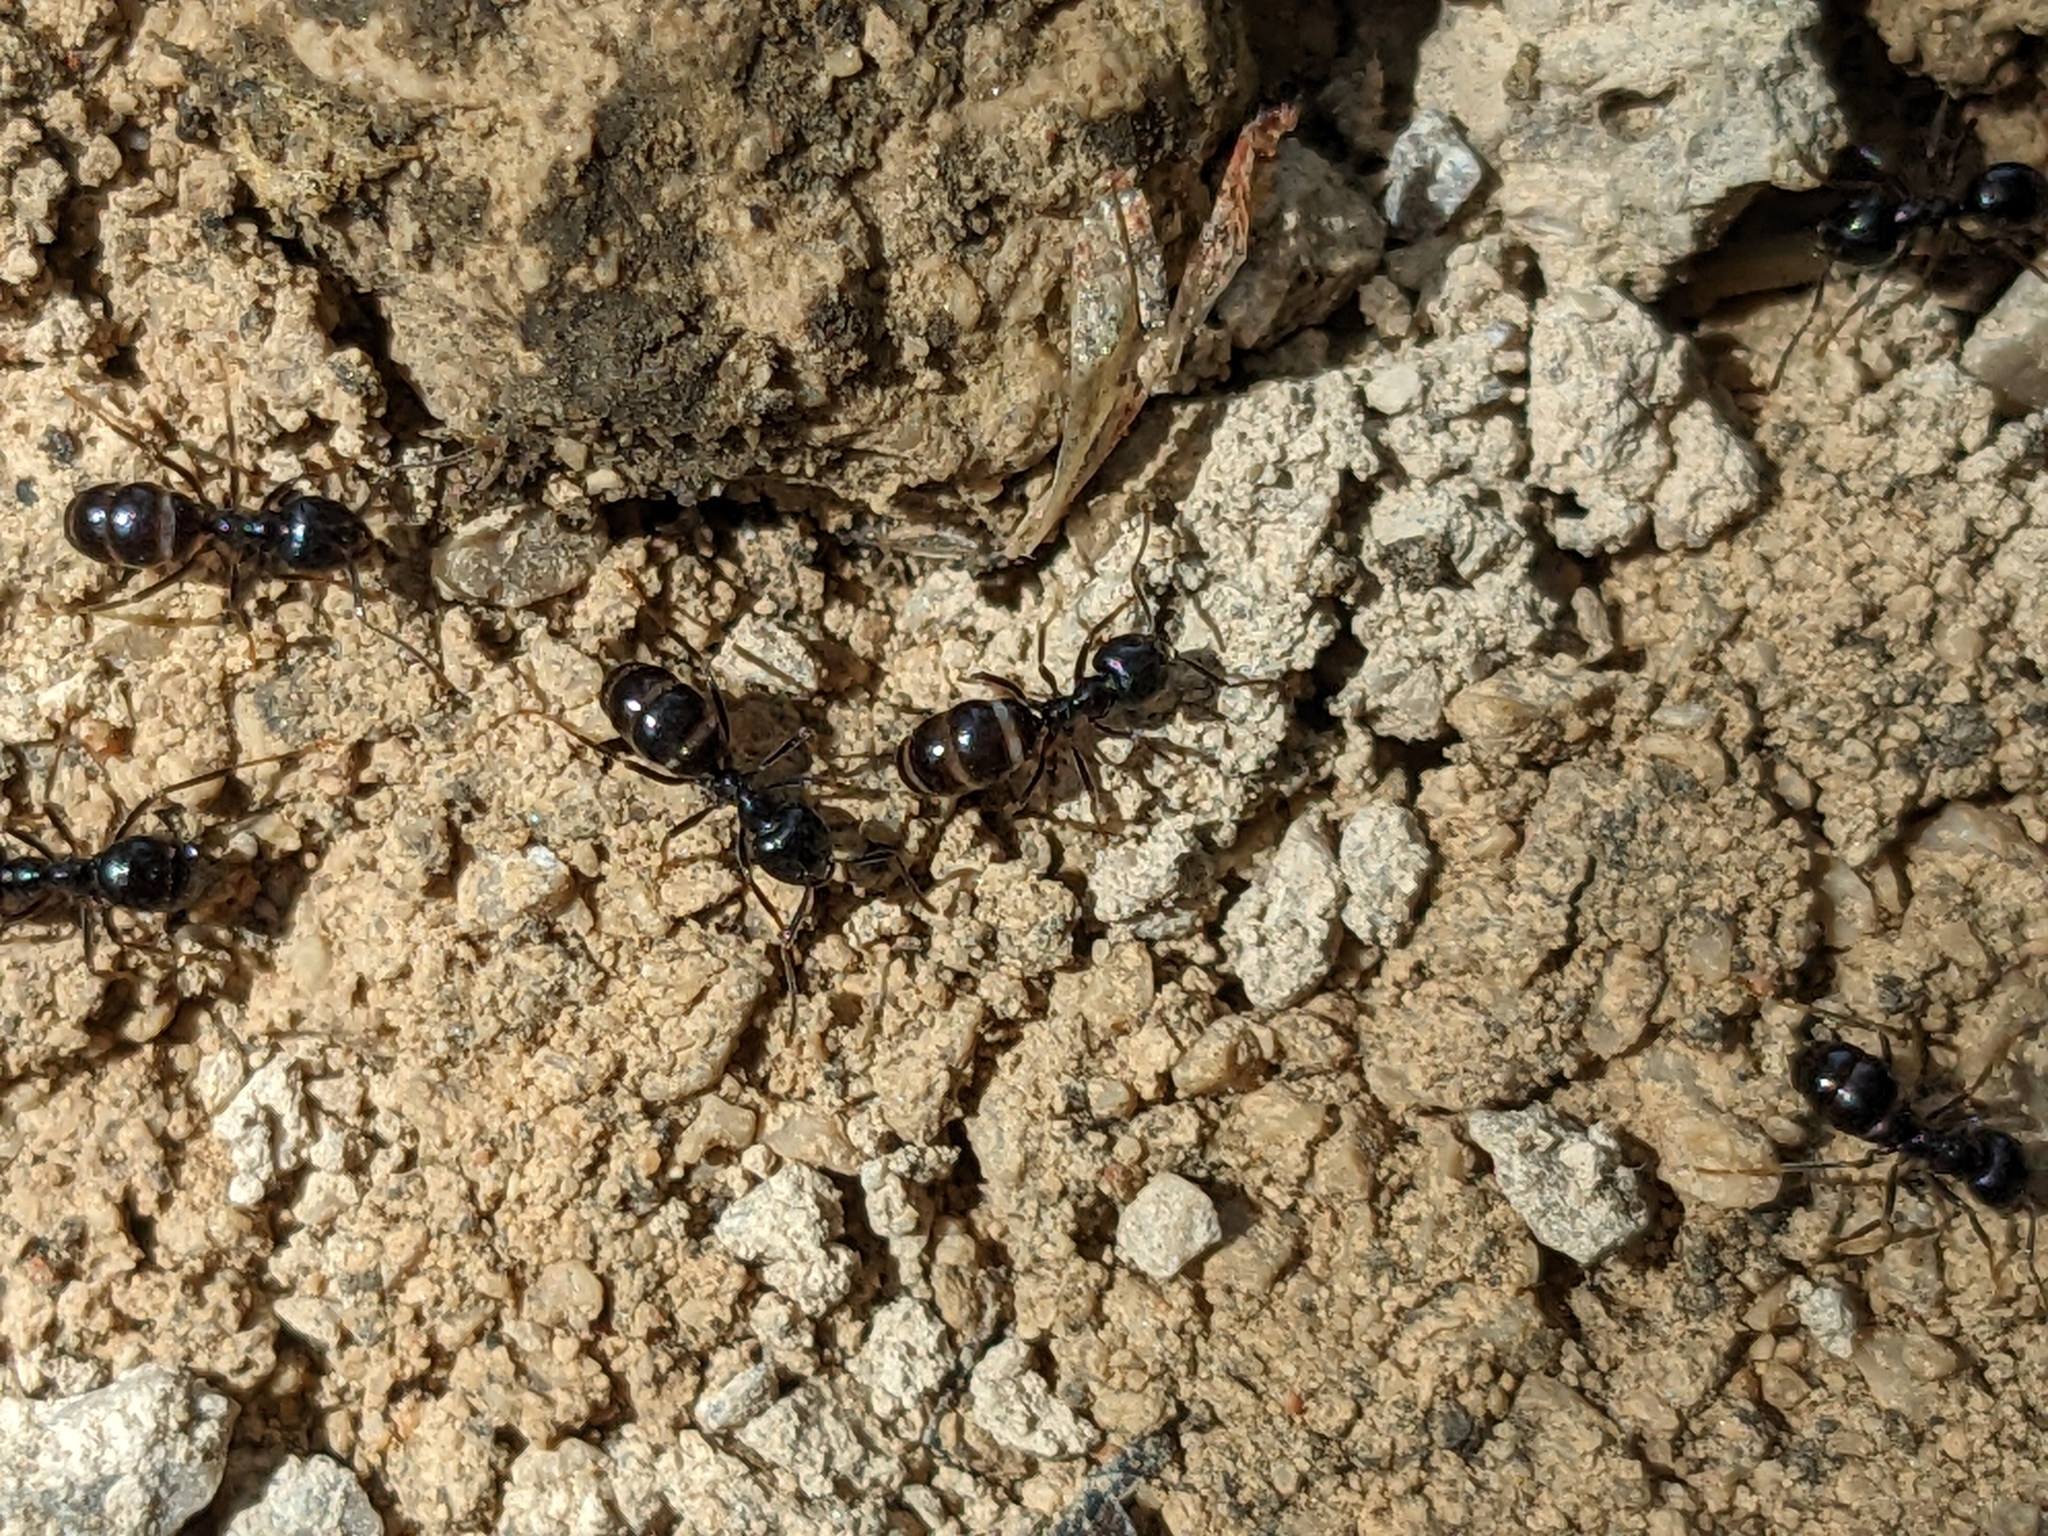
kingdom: Animalia
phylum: Arthropoda
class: Insecta
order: Hymenoptera
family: Formicidae
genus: Lasius
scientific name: Lasius fuliginosus
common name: Jet ant
